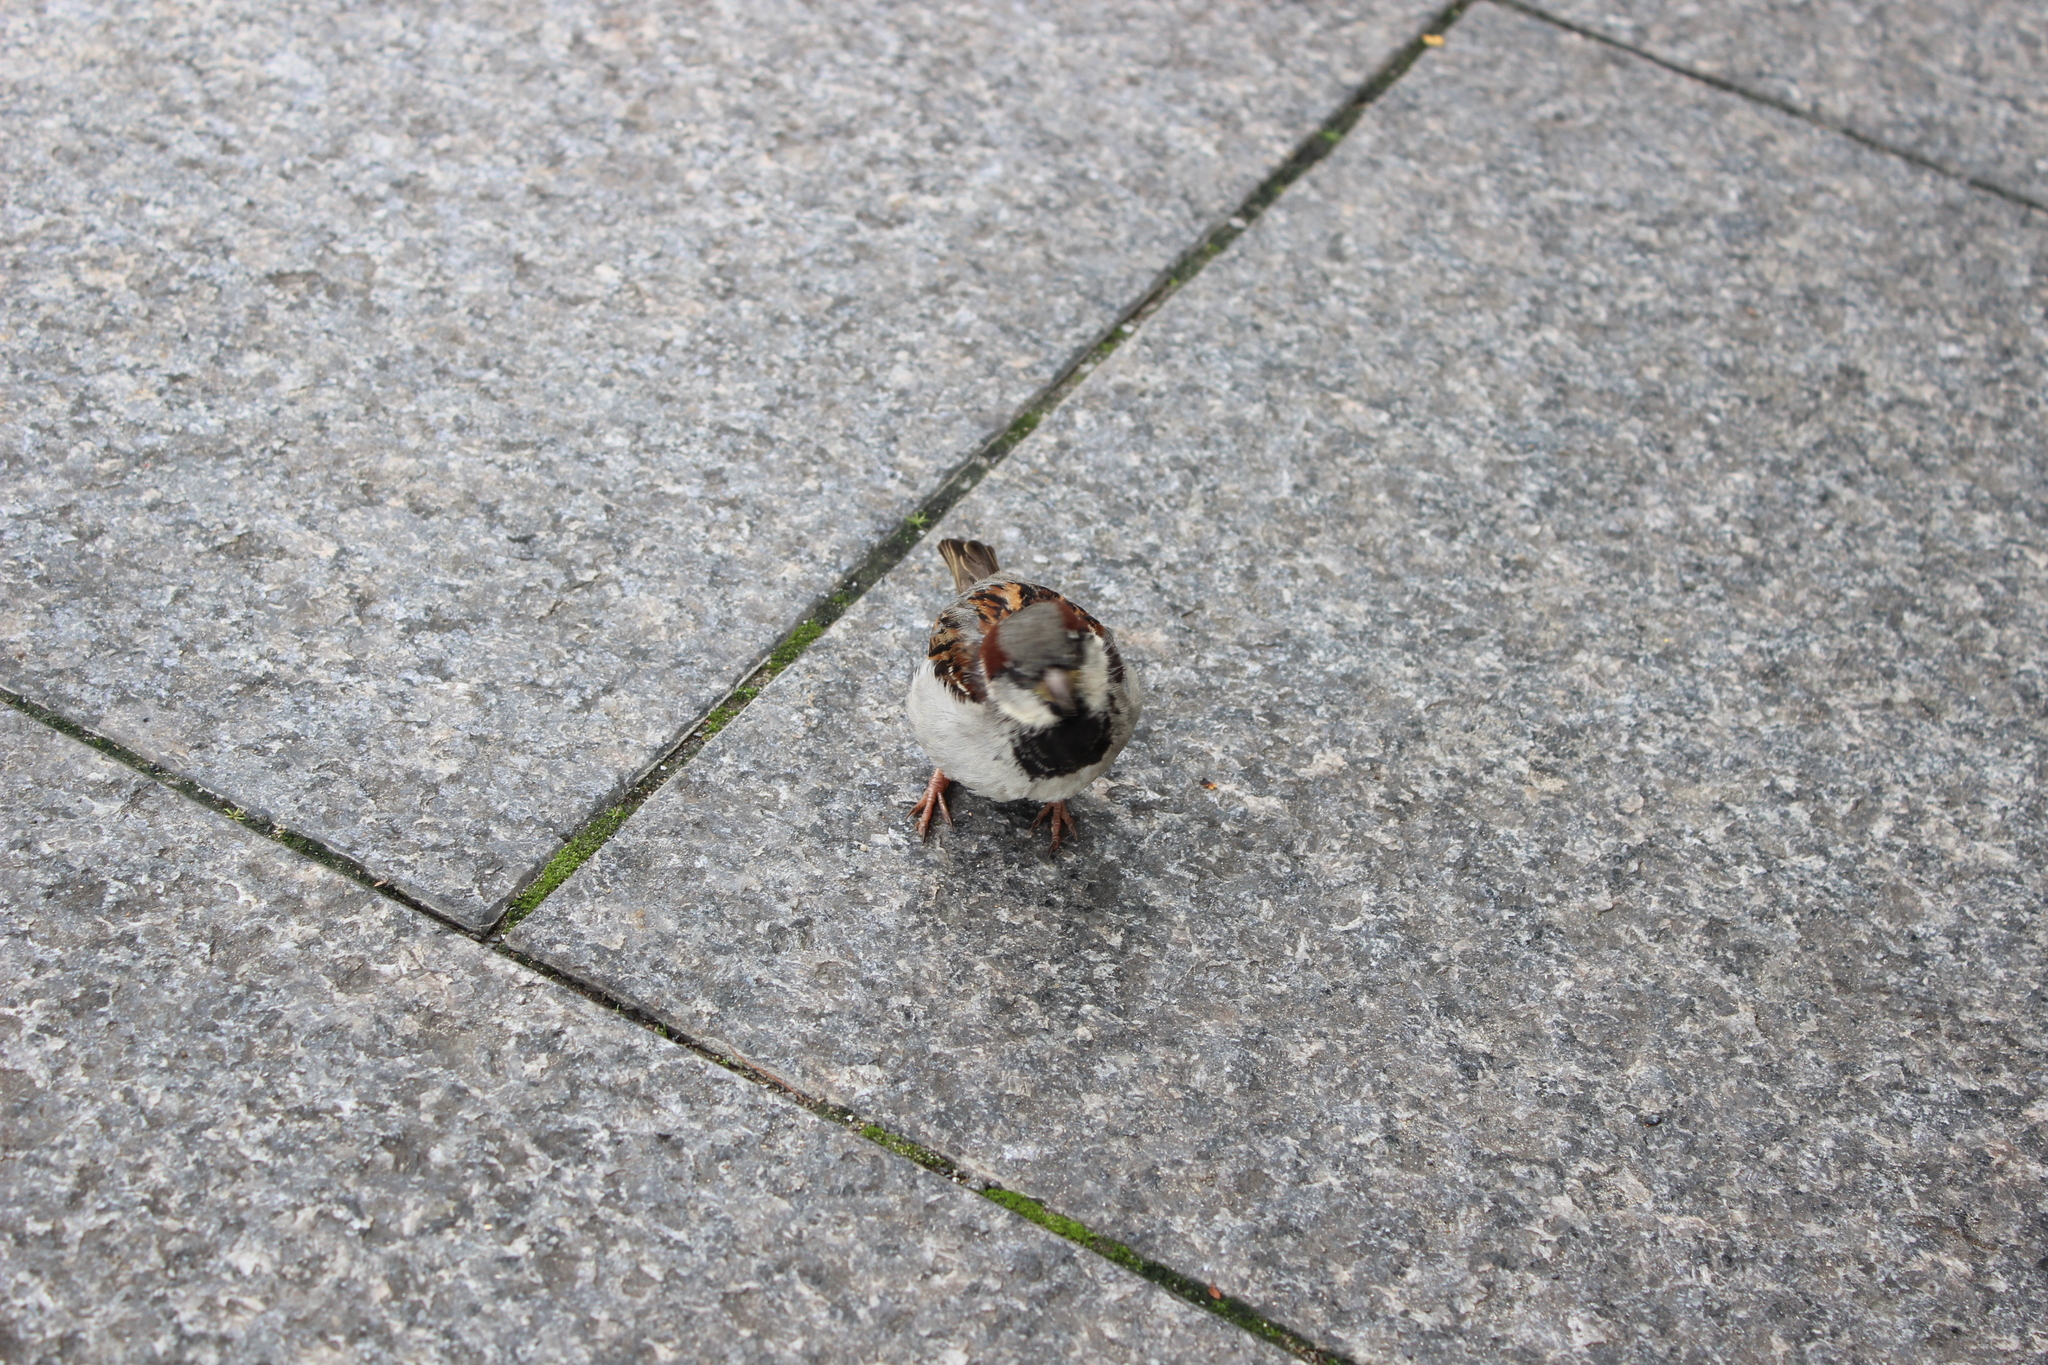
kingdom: Animalia
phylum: Chordata
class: Aves
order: Passeriformes
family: Passeridae
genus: Passer
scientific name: Passer domesticus
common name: House sparrow
